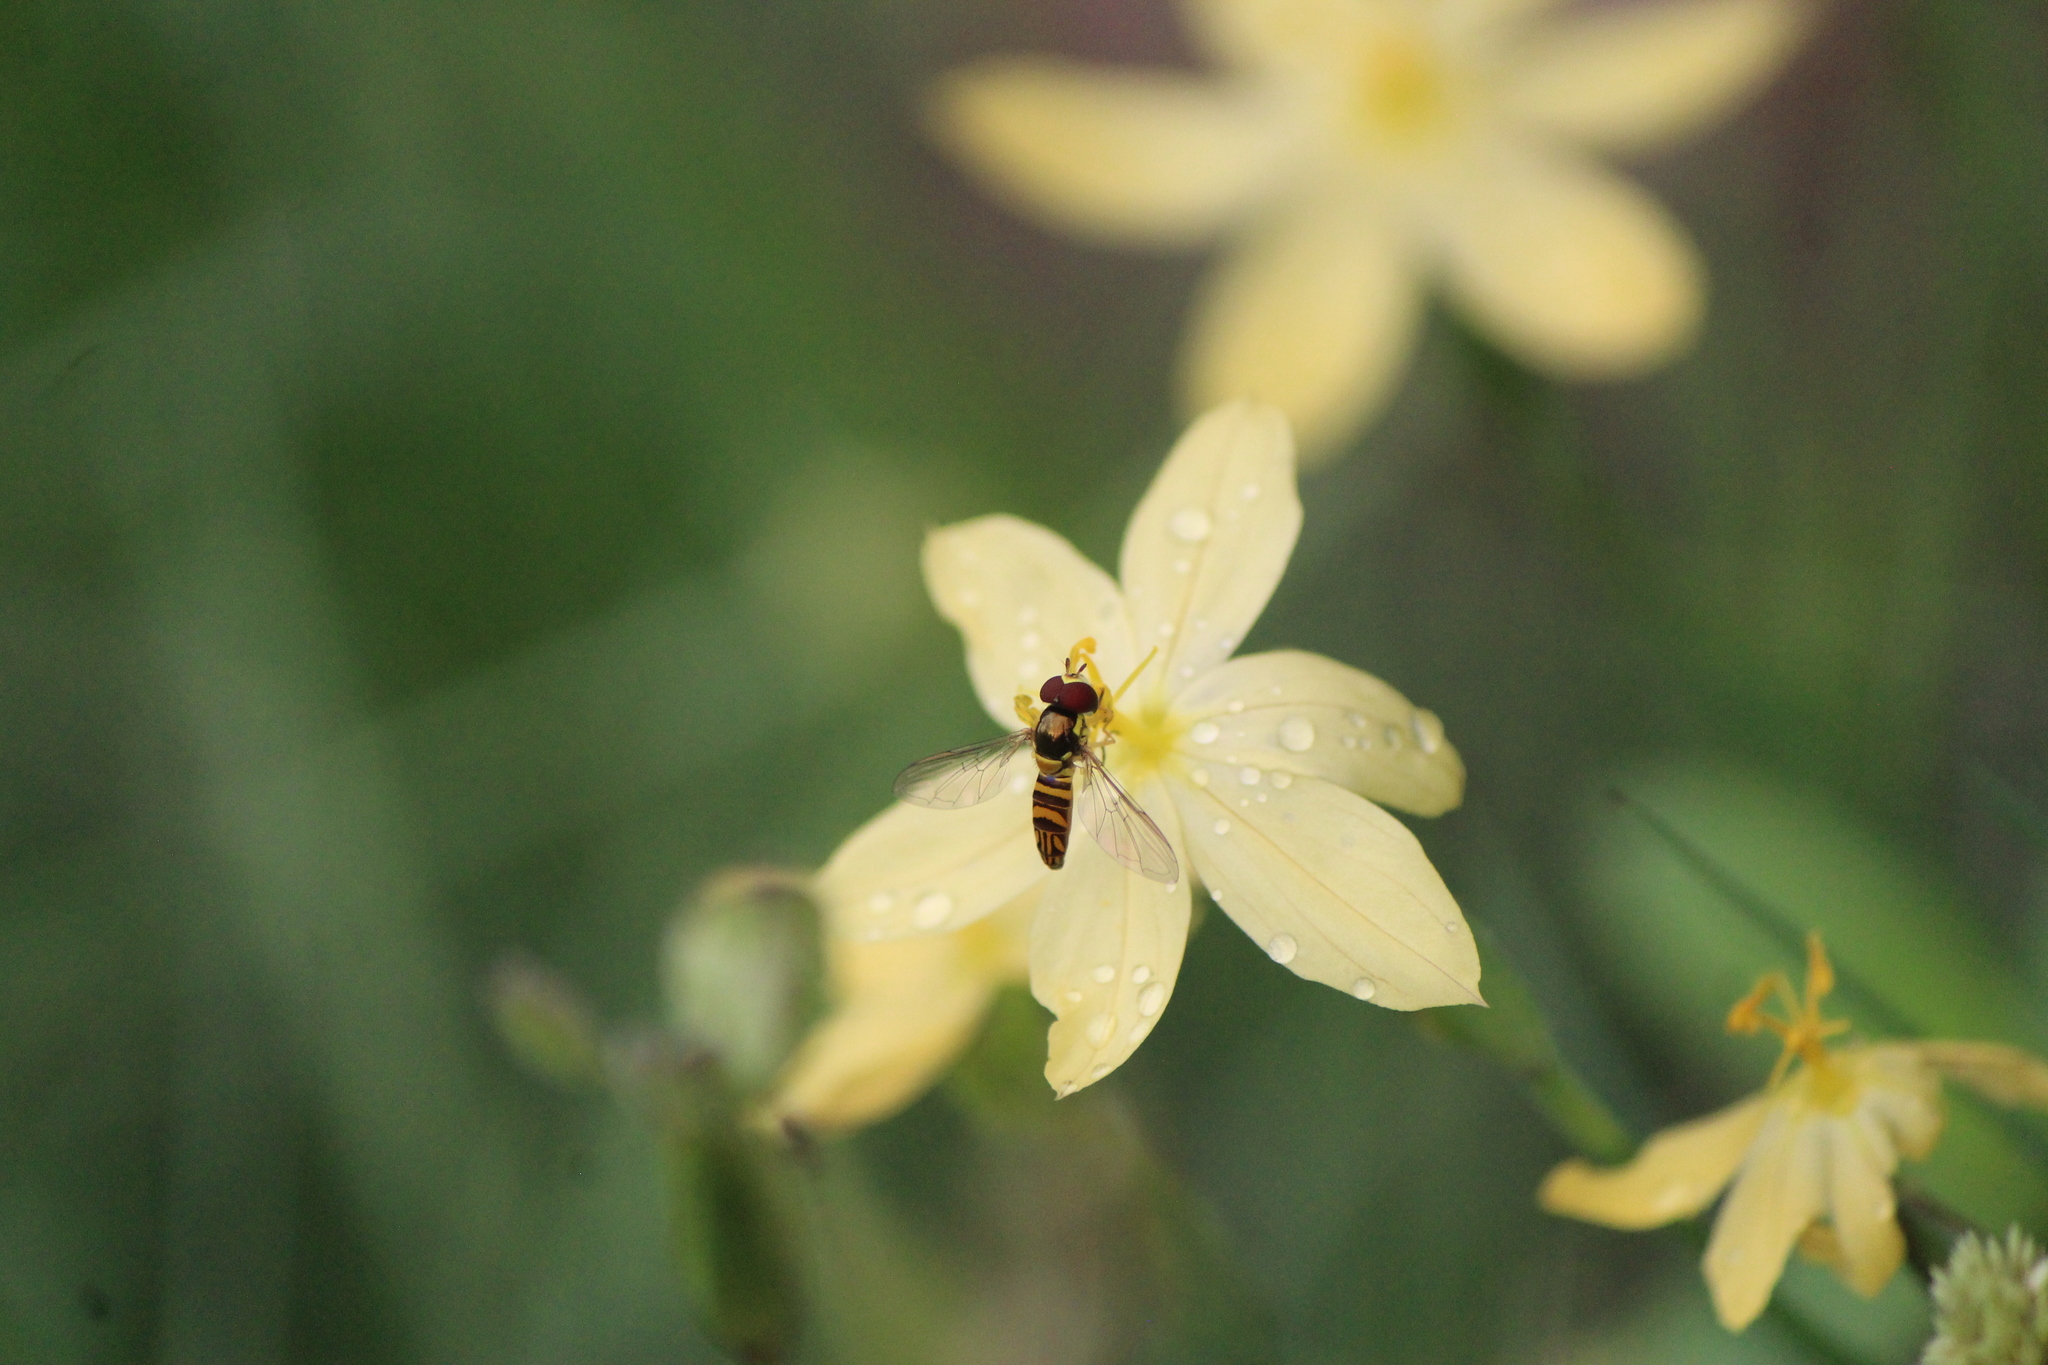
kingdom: Animalia
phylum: Arthropoda
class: Insecta
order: Diptera
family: Syrphidae
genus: Allograpta
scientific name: Allograpta obliqua
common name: Common oblique syrphid
